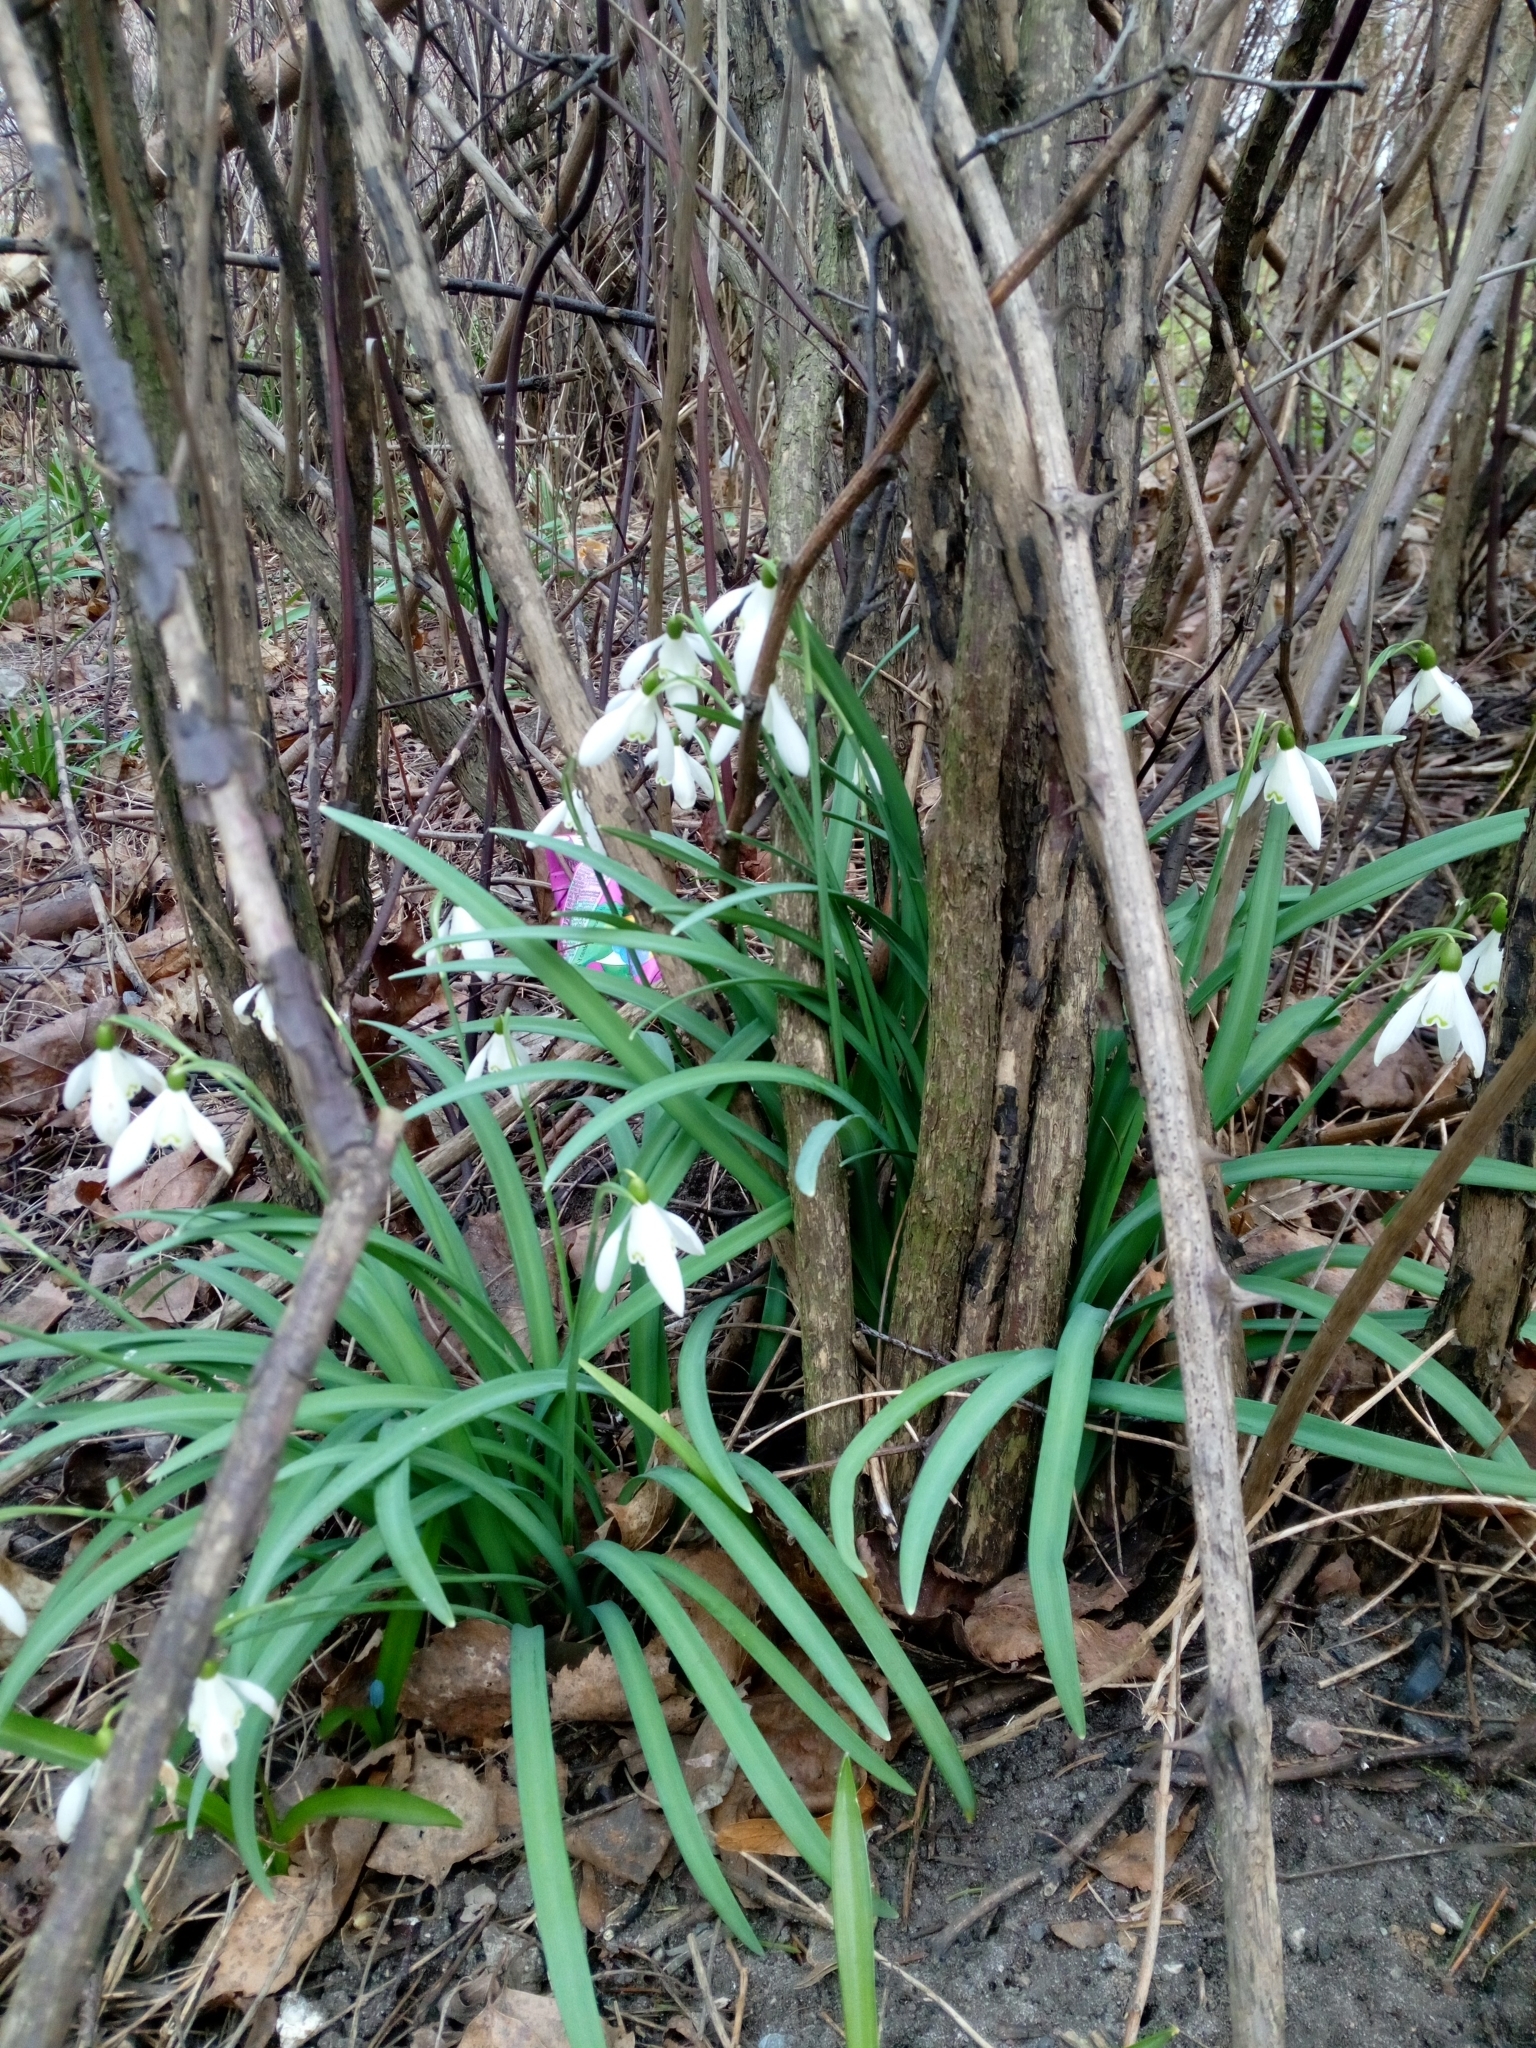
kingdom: Plantae
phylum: Tracheophyta
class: Liliopsida
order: Asparagales
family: Amaryllidaceae
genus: Galanthus
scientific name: Galanthus nivalis
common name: Snowdrop
